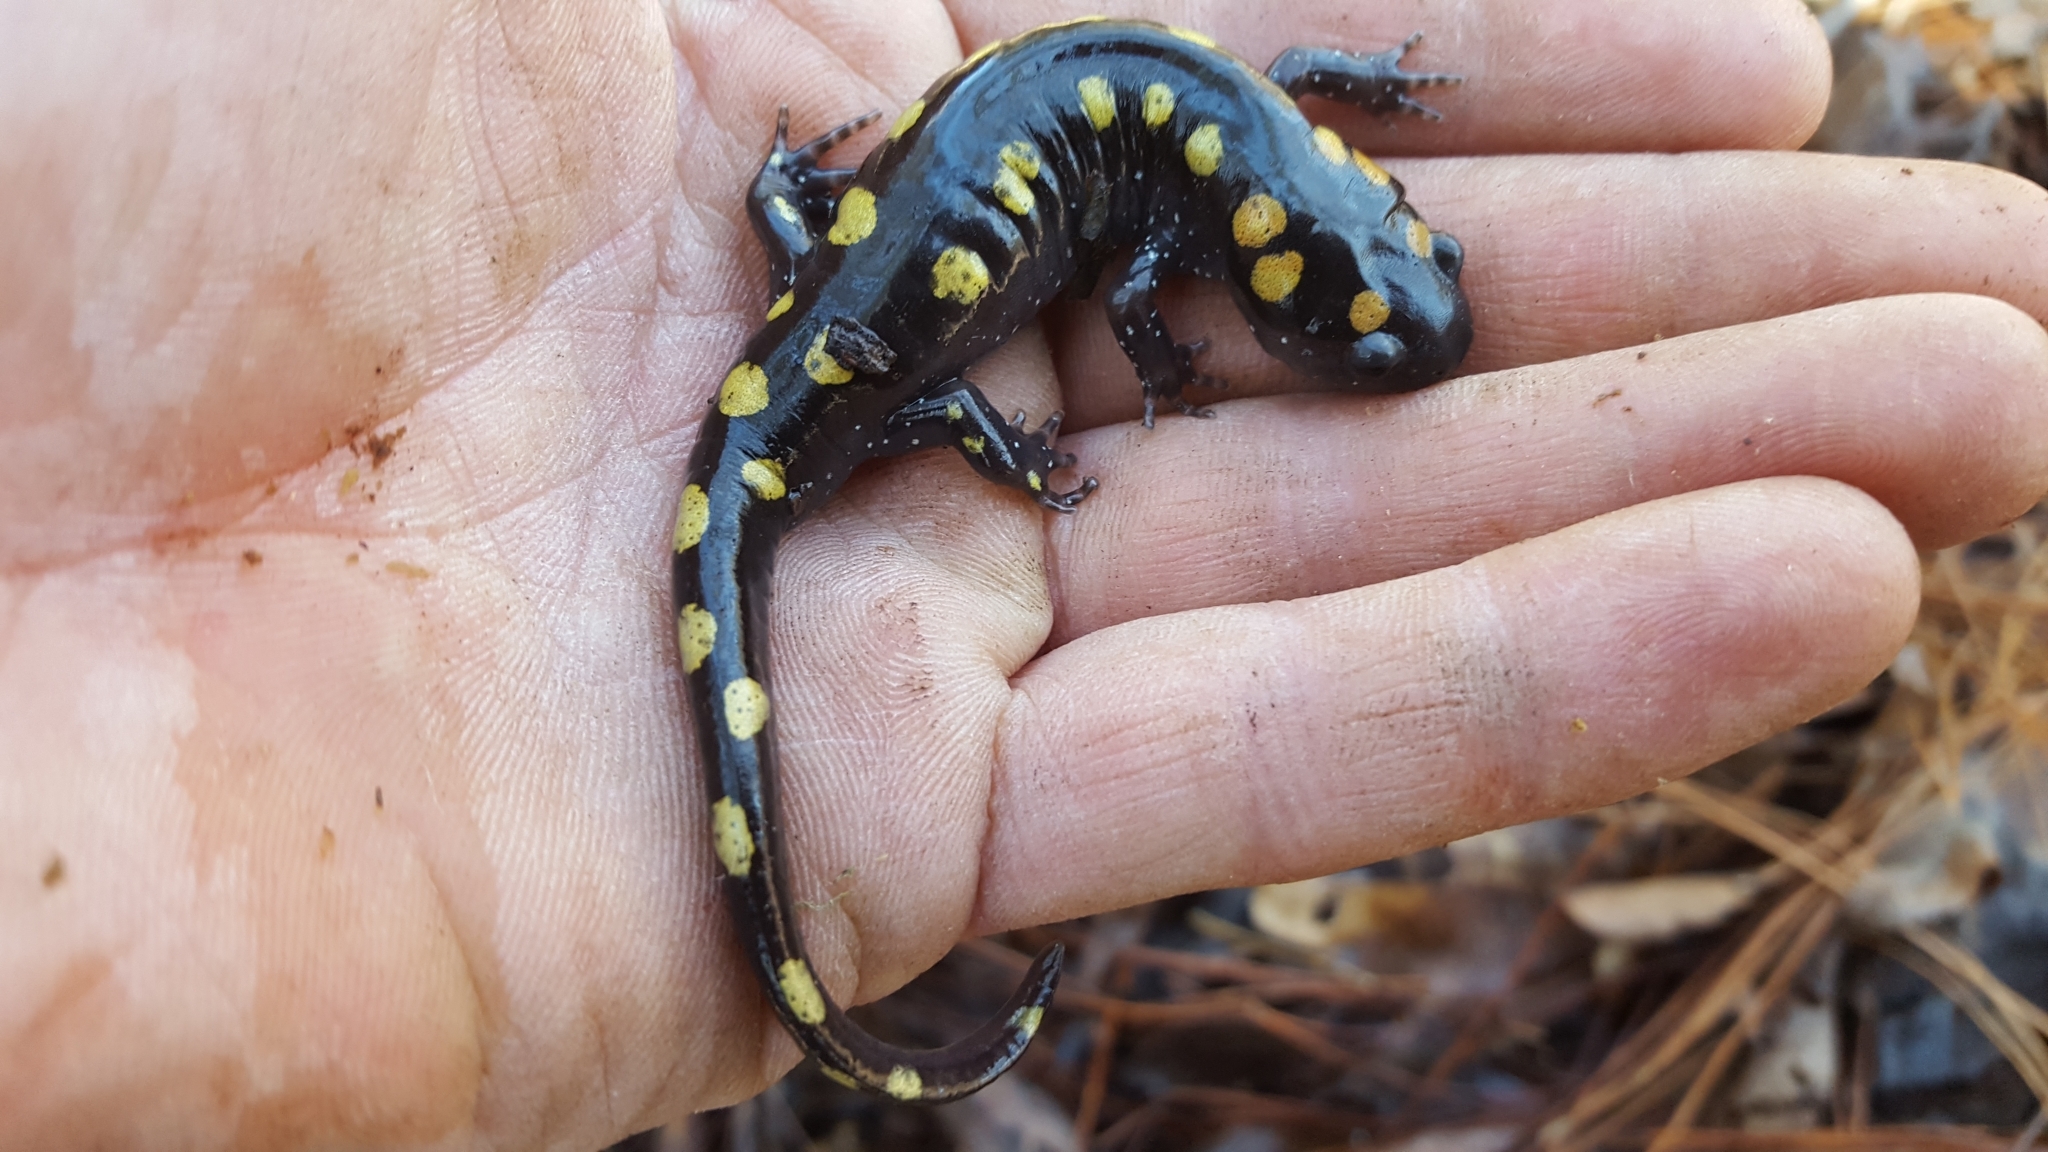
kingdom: Animalia
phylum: Chordata
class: Amphibia
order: Caudata
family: Ambystomatidae
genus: Ambystoma
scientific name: Ambystoma maculatum
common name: Spotted salamander
